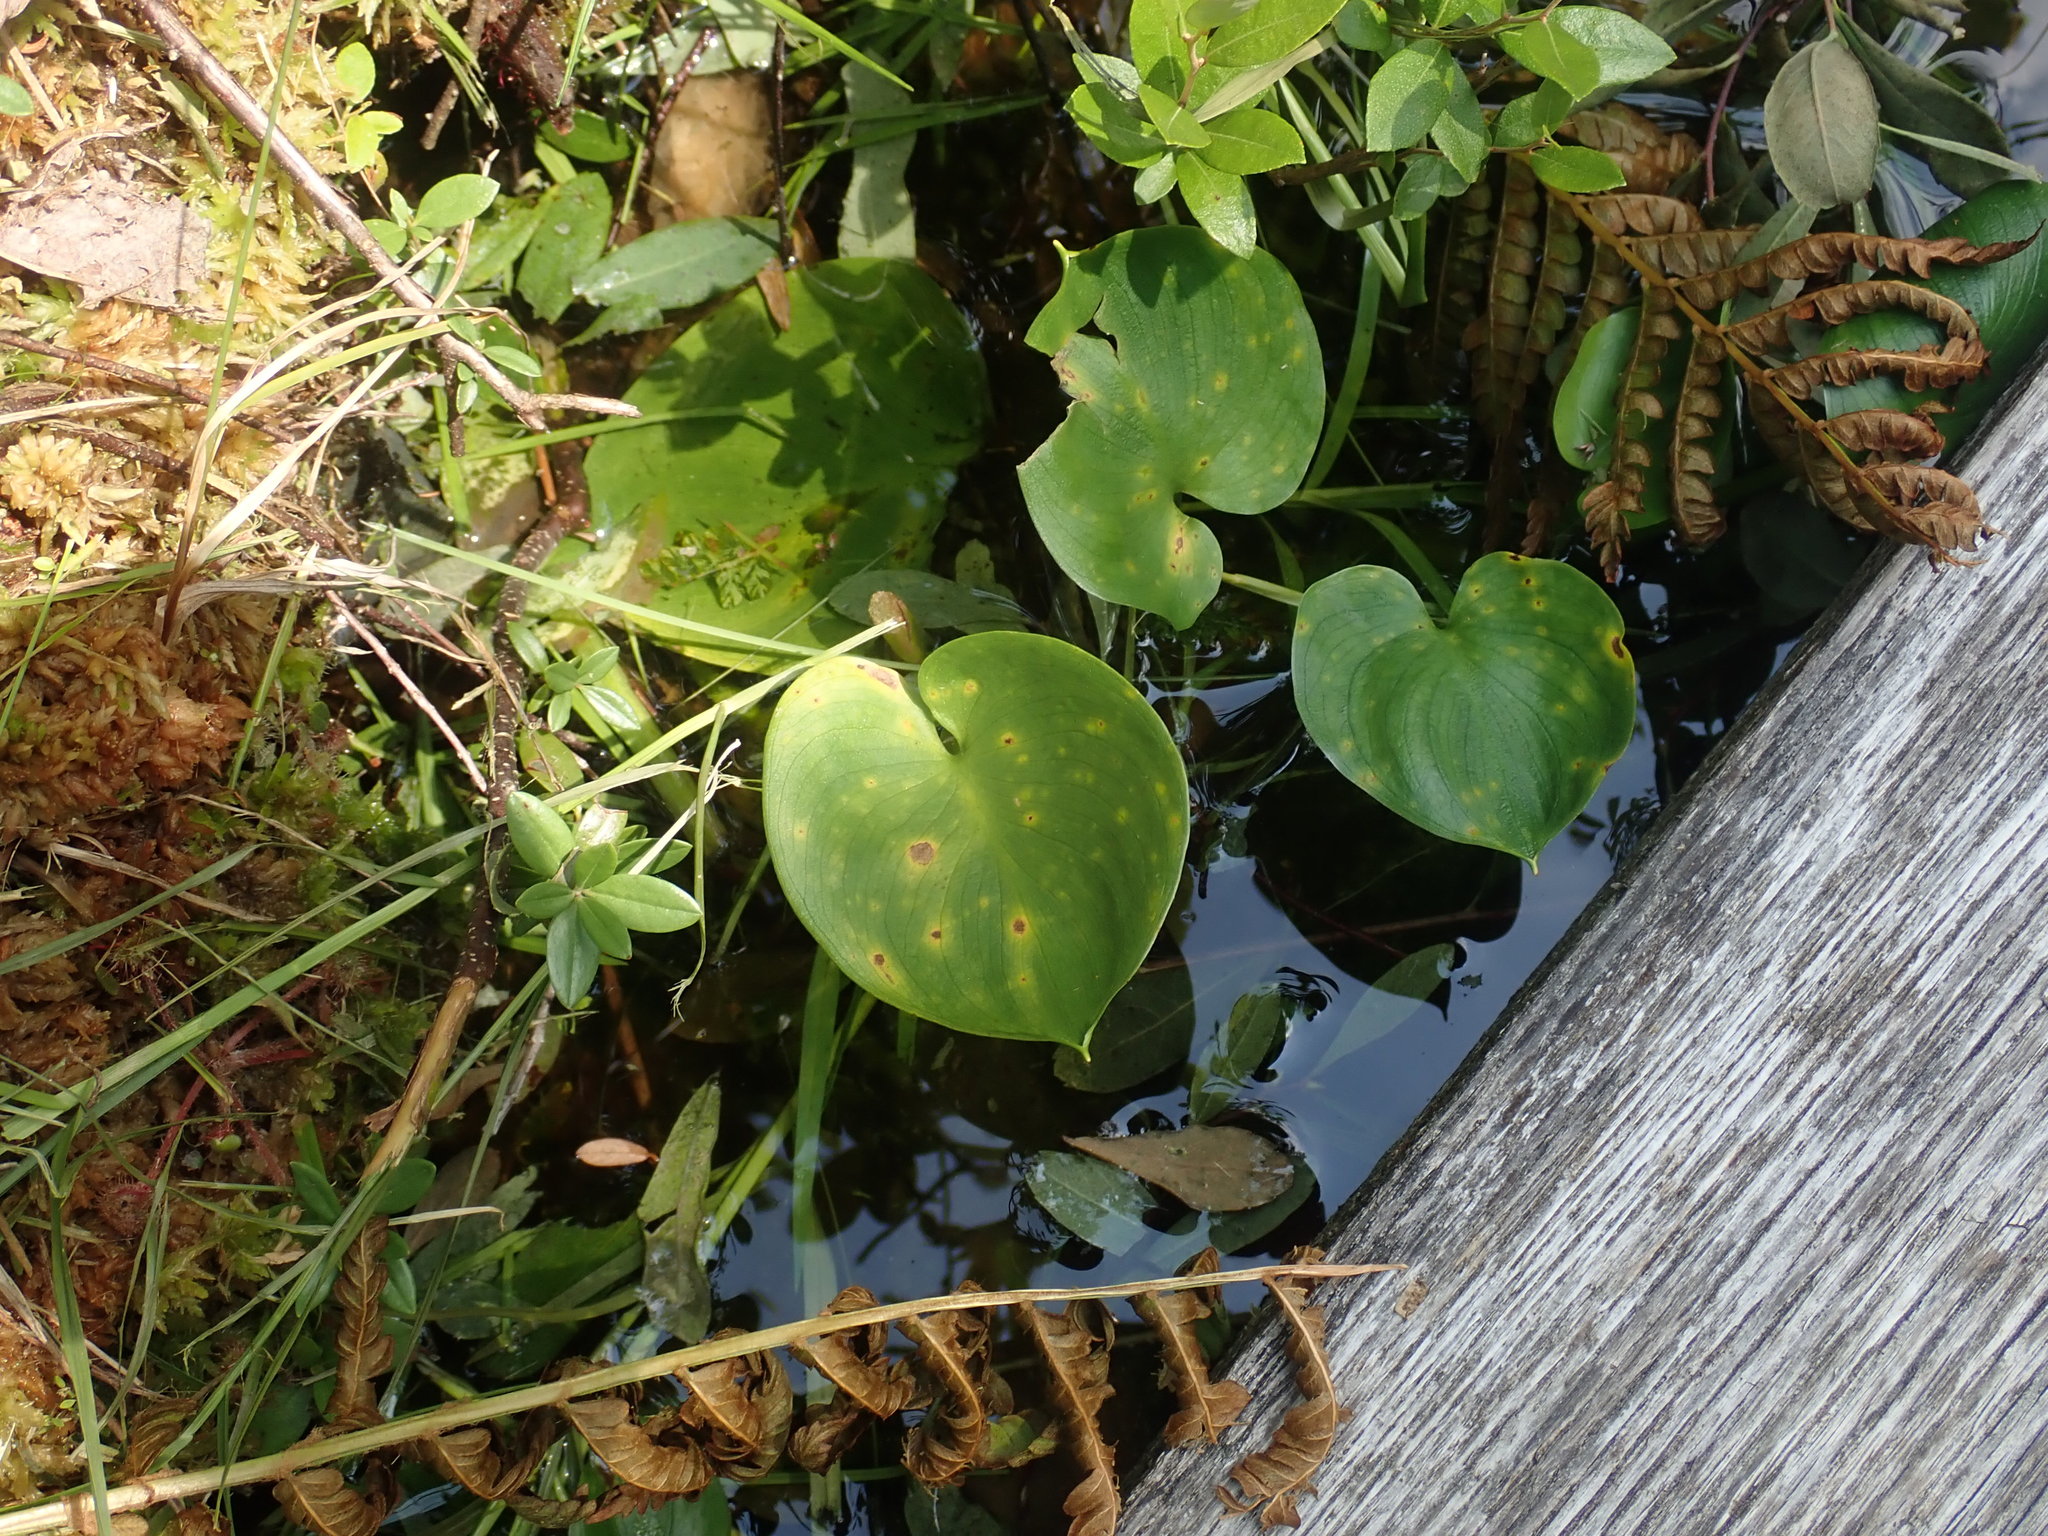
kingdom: Plantae
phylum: Tracheophyta
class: Liliopsida
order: Alismatales
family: Araceae
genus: Calla
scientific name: Calla palustris
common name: Bog arum
